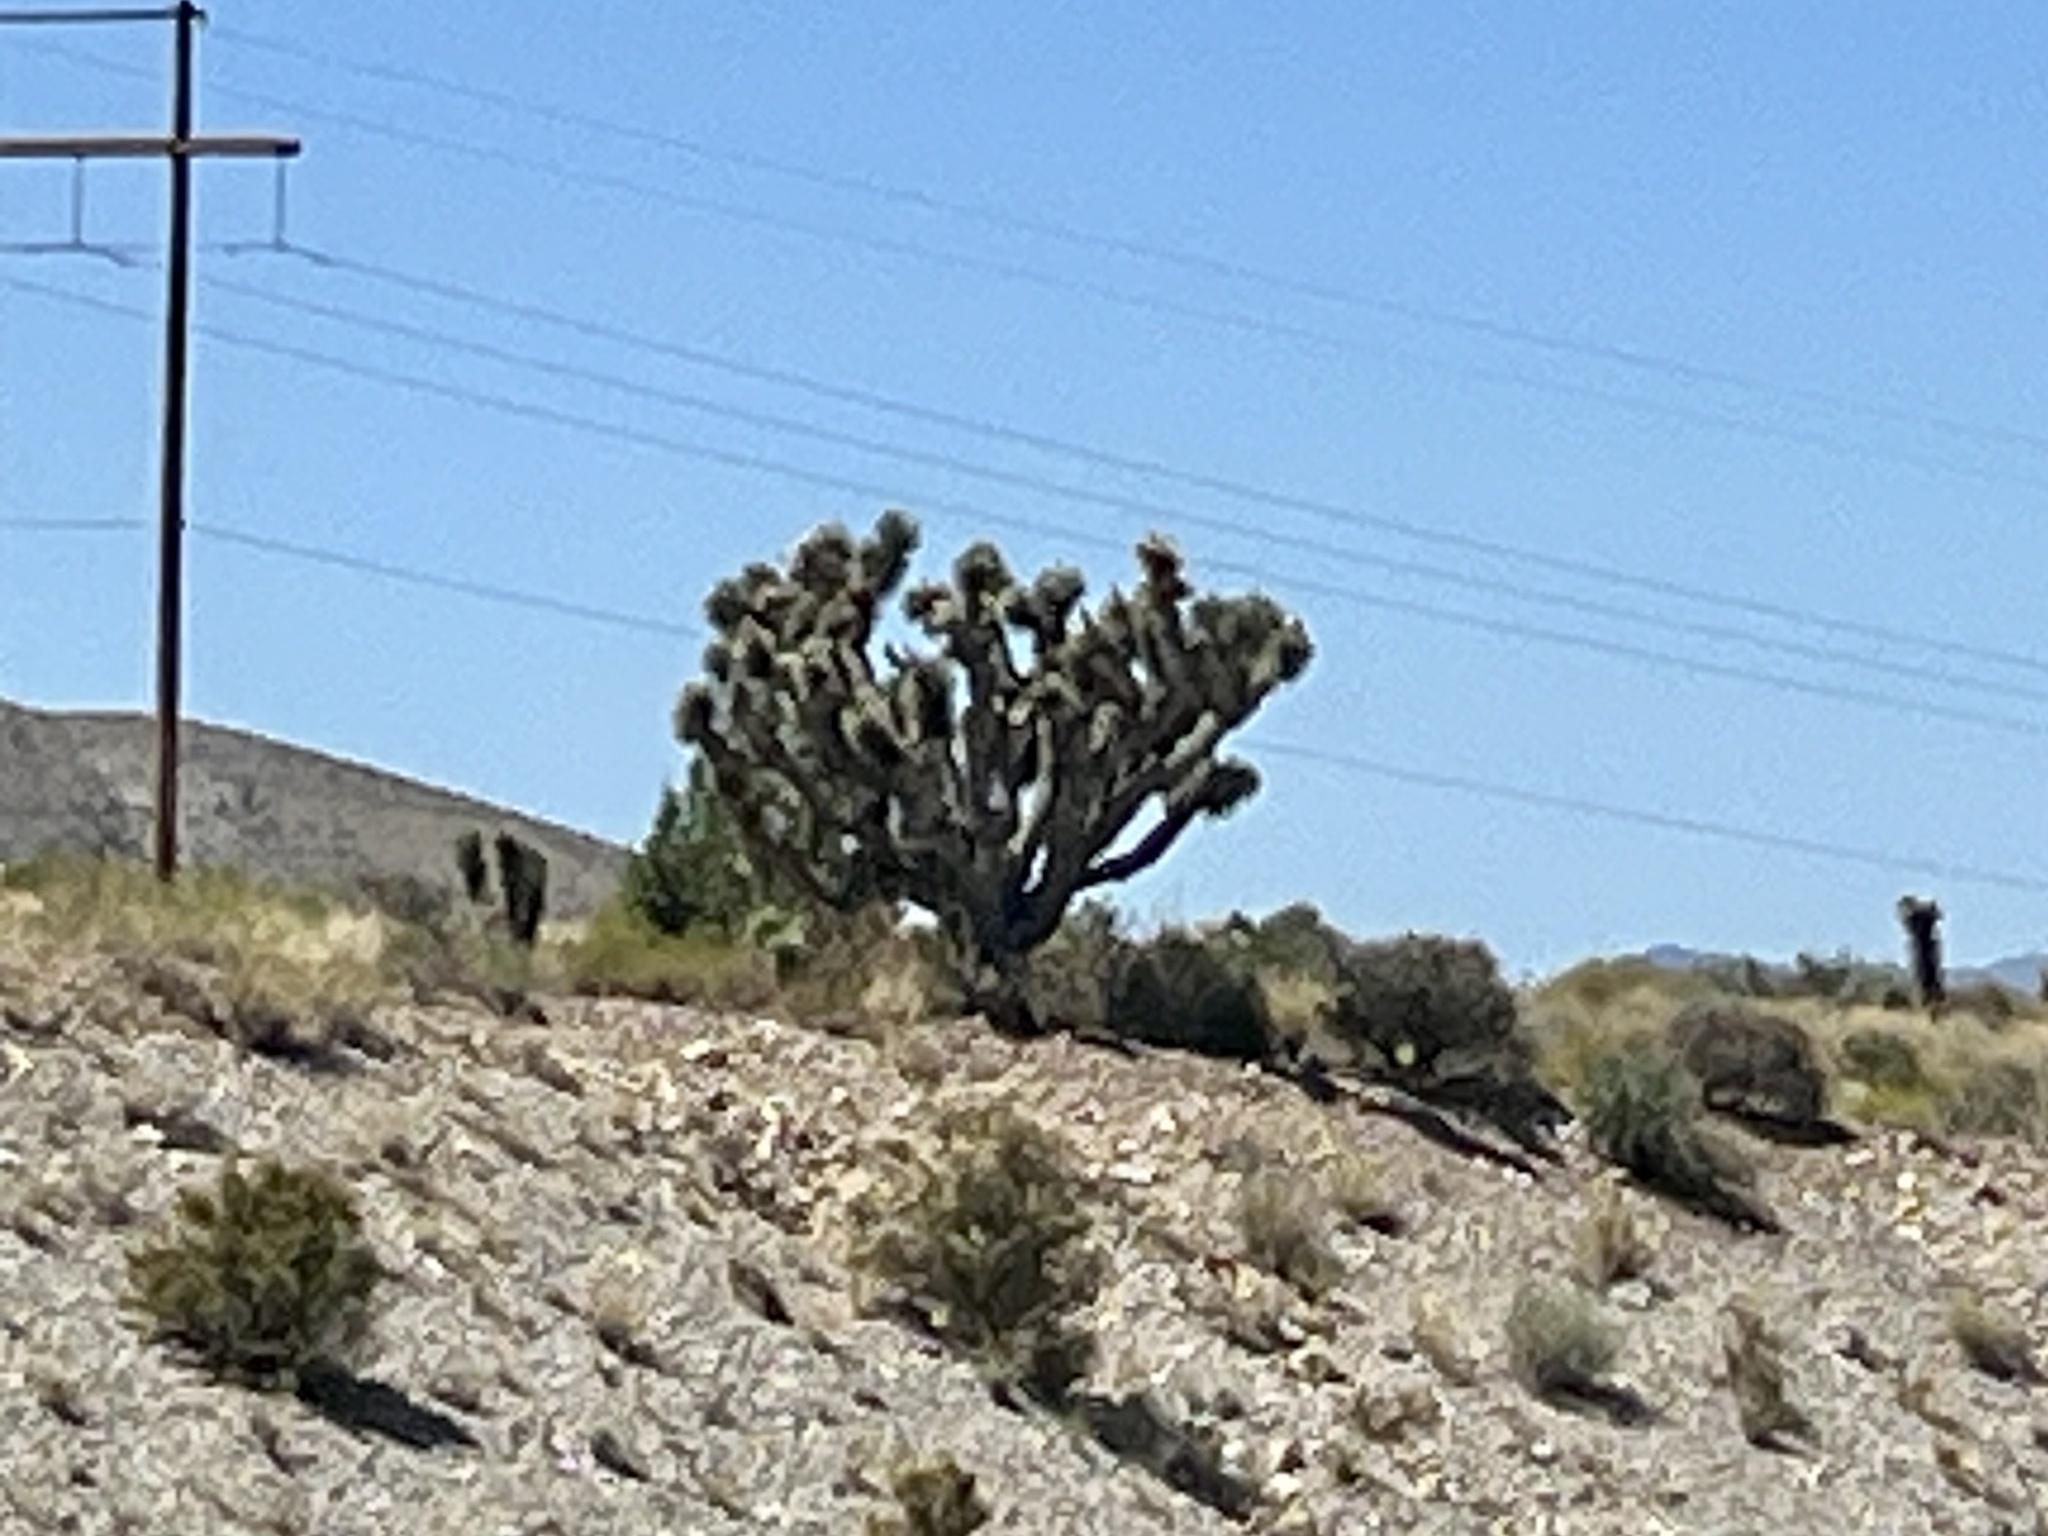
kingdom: Plantae
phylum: Tracheophyta
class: Liliopsida
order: Asparagales
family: Asparagaceae
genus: Yucca
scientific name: Yucca brevifolia
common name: Joshua tree
